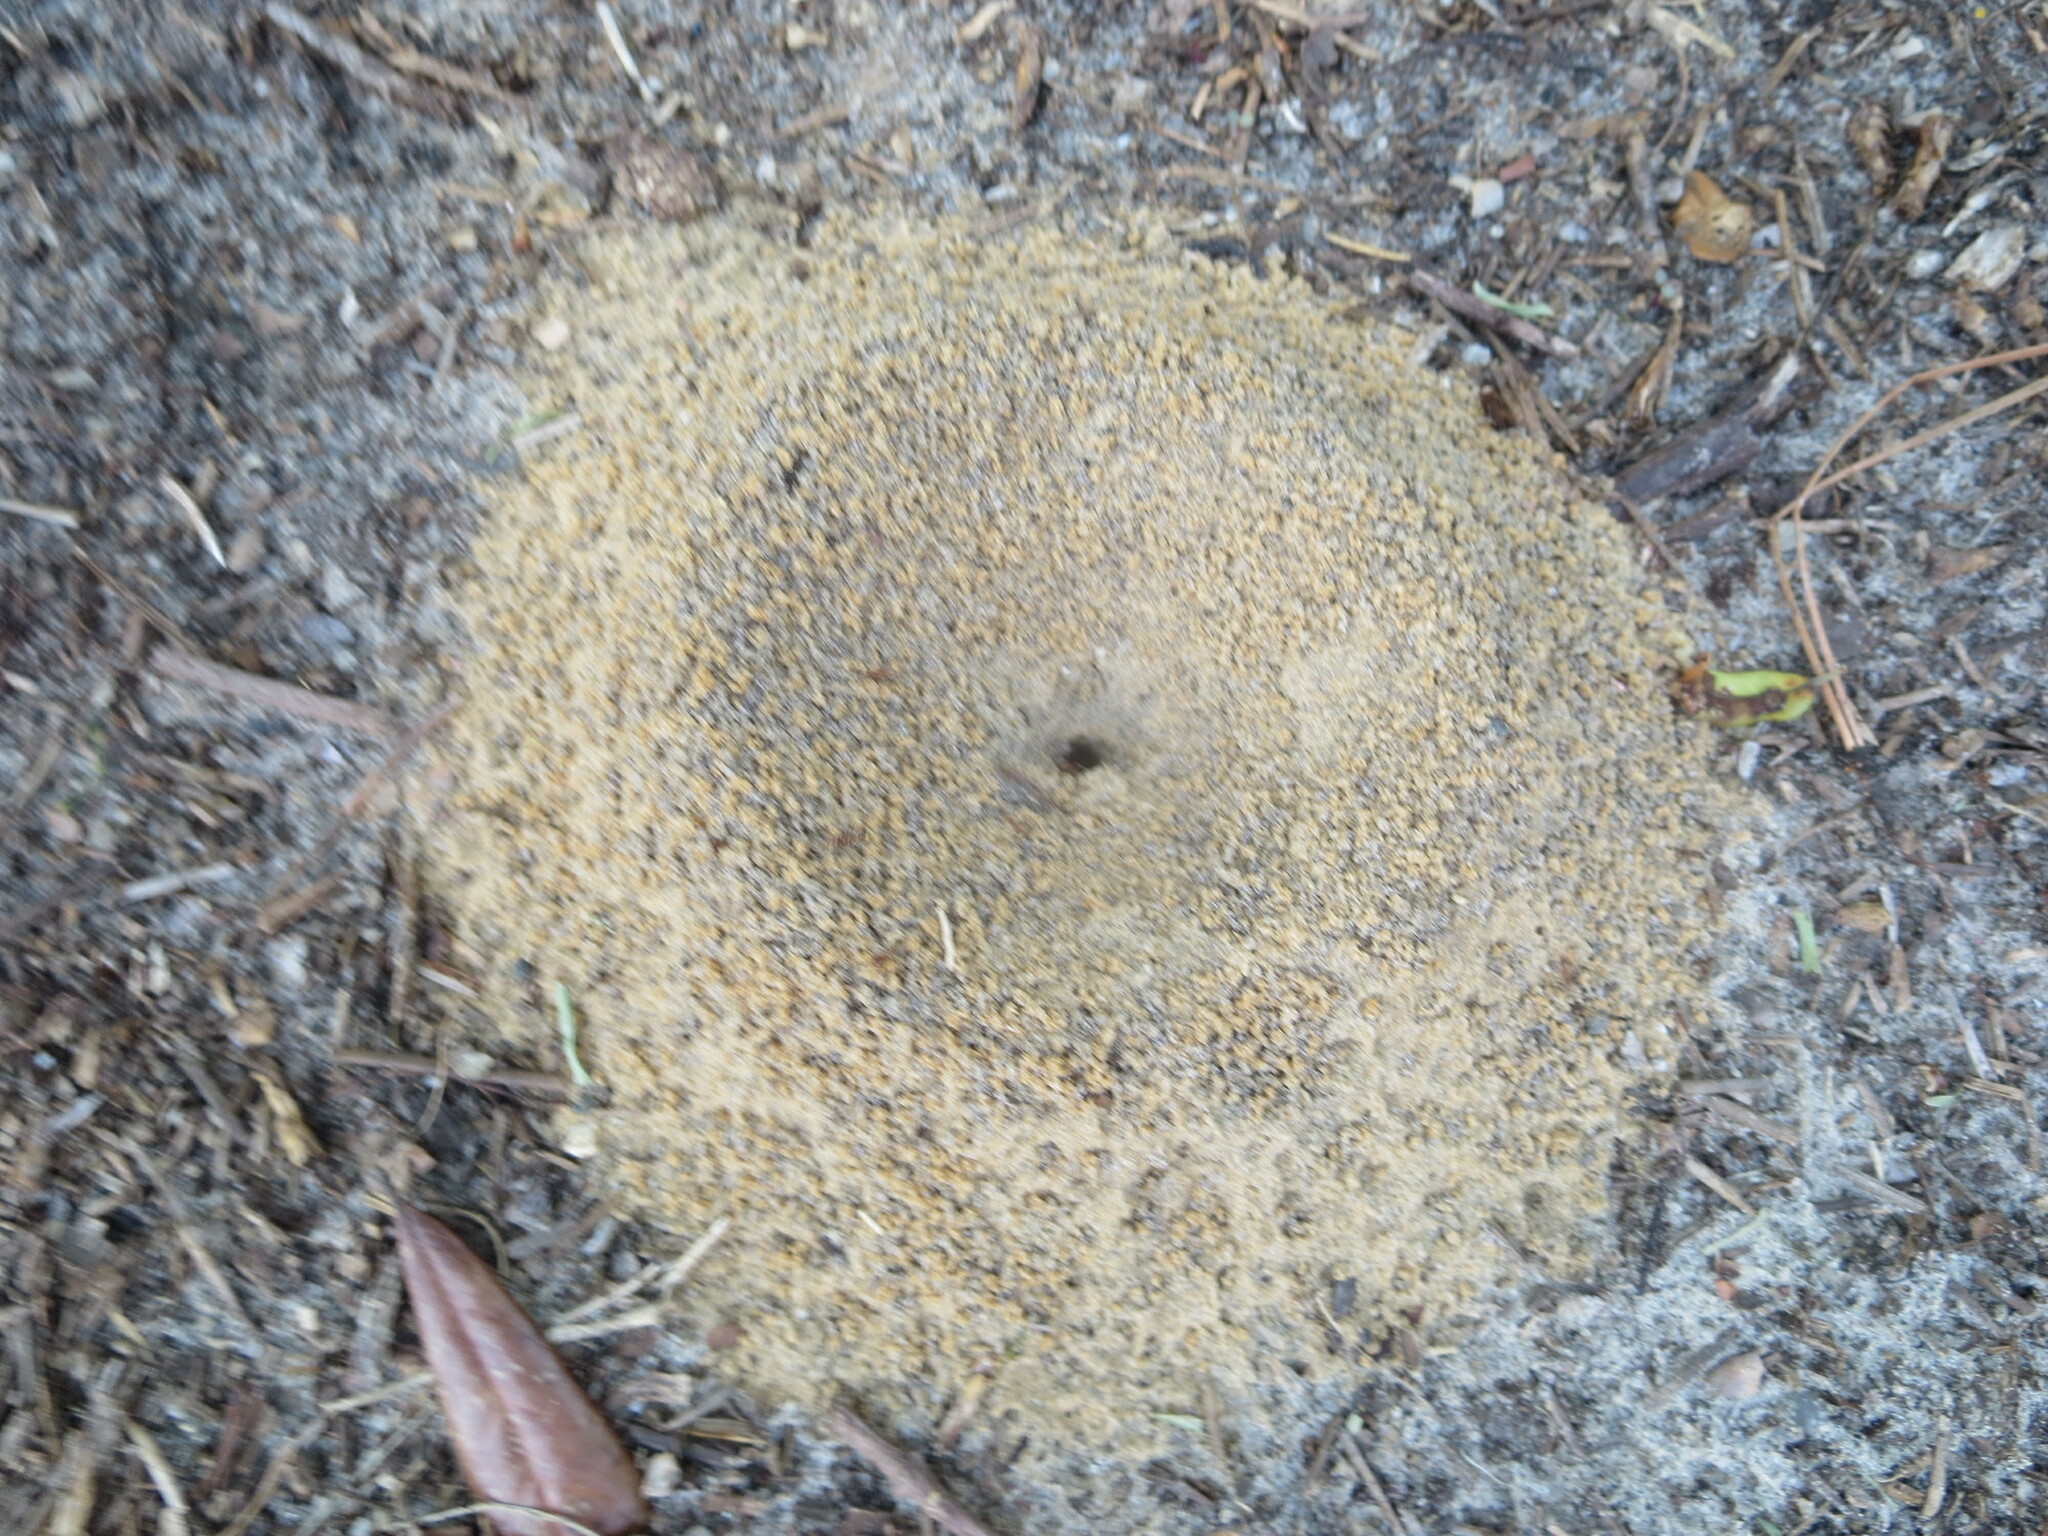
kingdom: Animalia
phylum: Arthropoda
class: Insecta
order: Hymenoptera
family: Formicidae
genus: Dorymyrmex
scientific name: Dorymyrmex bureni
